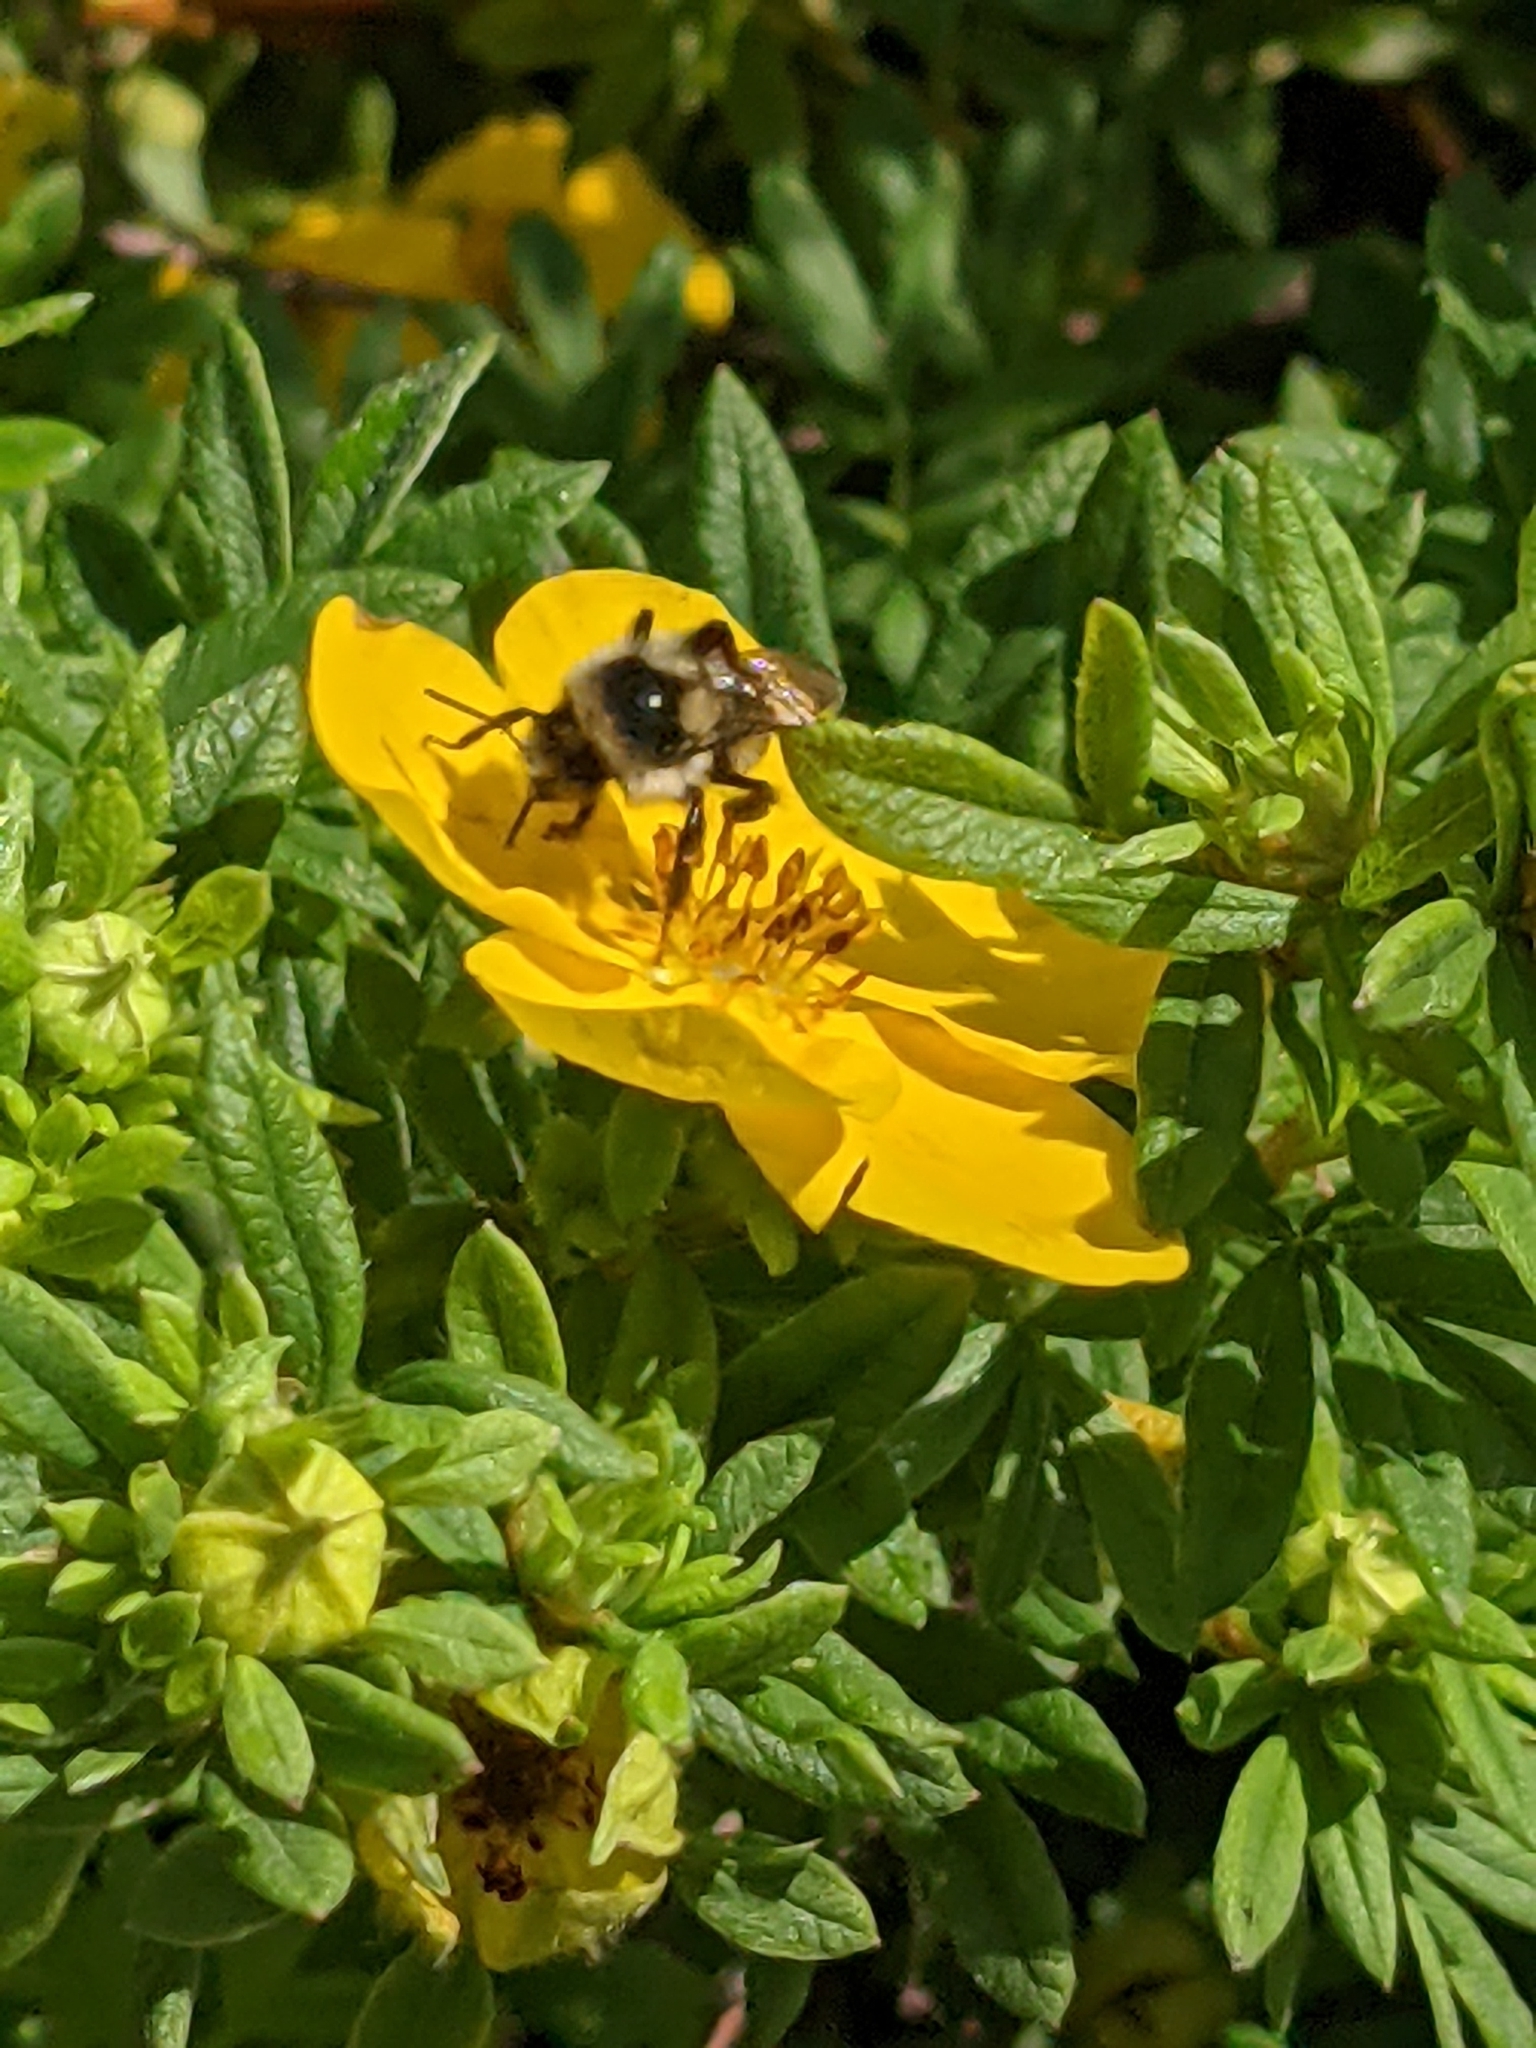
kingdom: Animalia
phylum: Arthropoda
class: Insecta
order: Hymenoptera
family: Apidae
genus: Bombus
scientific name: Bombus vancouverensis
